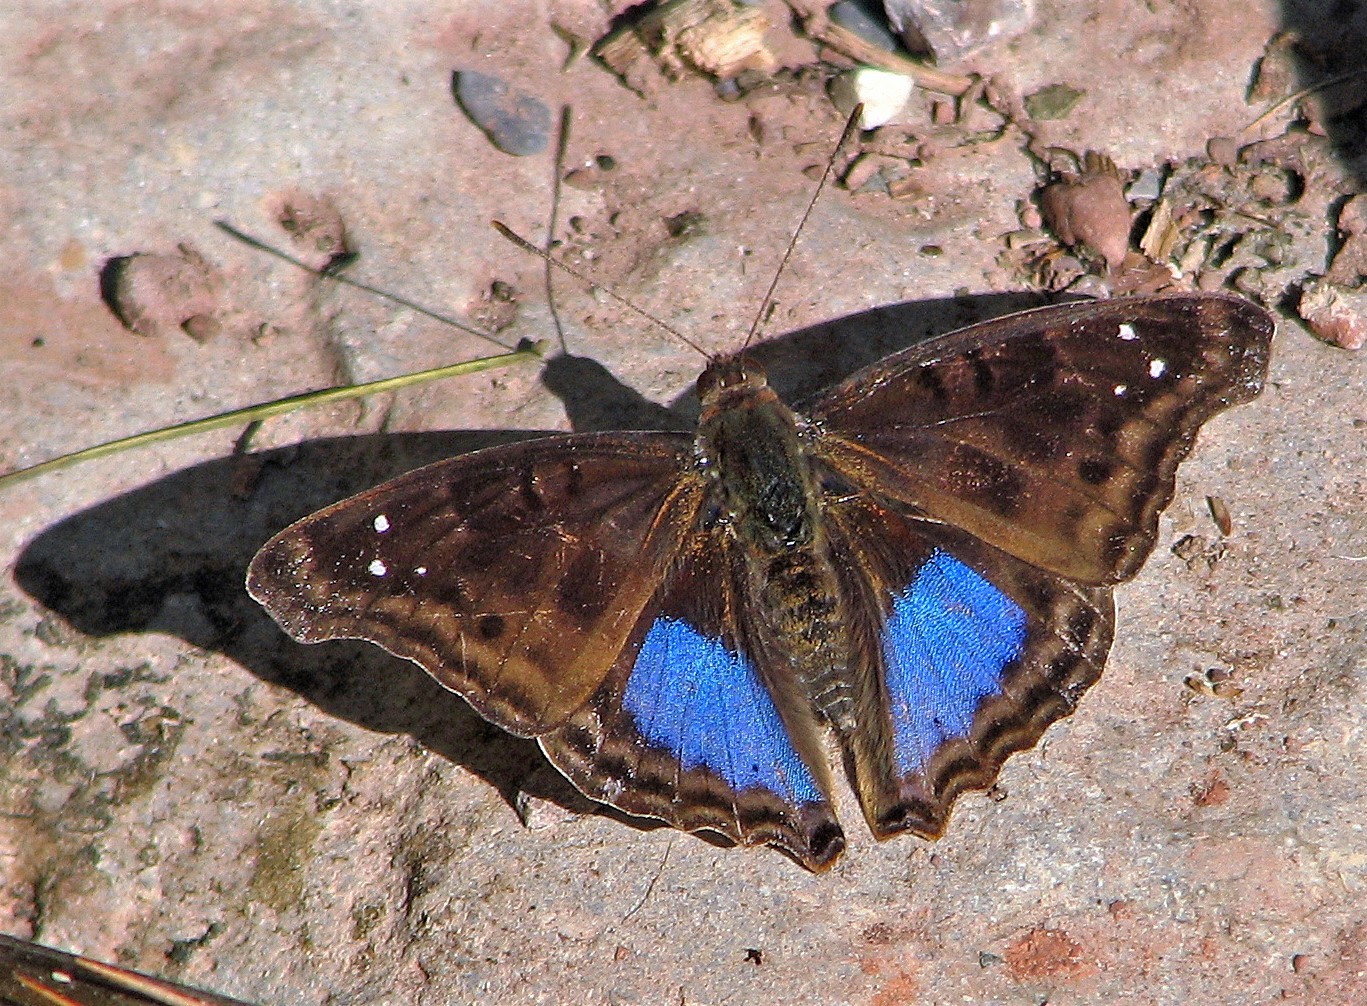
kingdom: Animalia
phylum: Arthropoda
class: Insecta
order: Lepidoptera
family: Nymphalidae
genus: Doxocopa
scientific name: Doxocopa cyane
